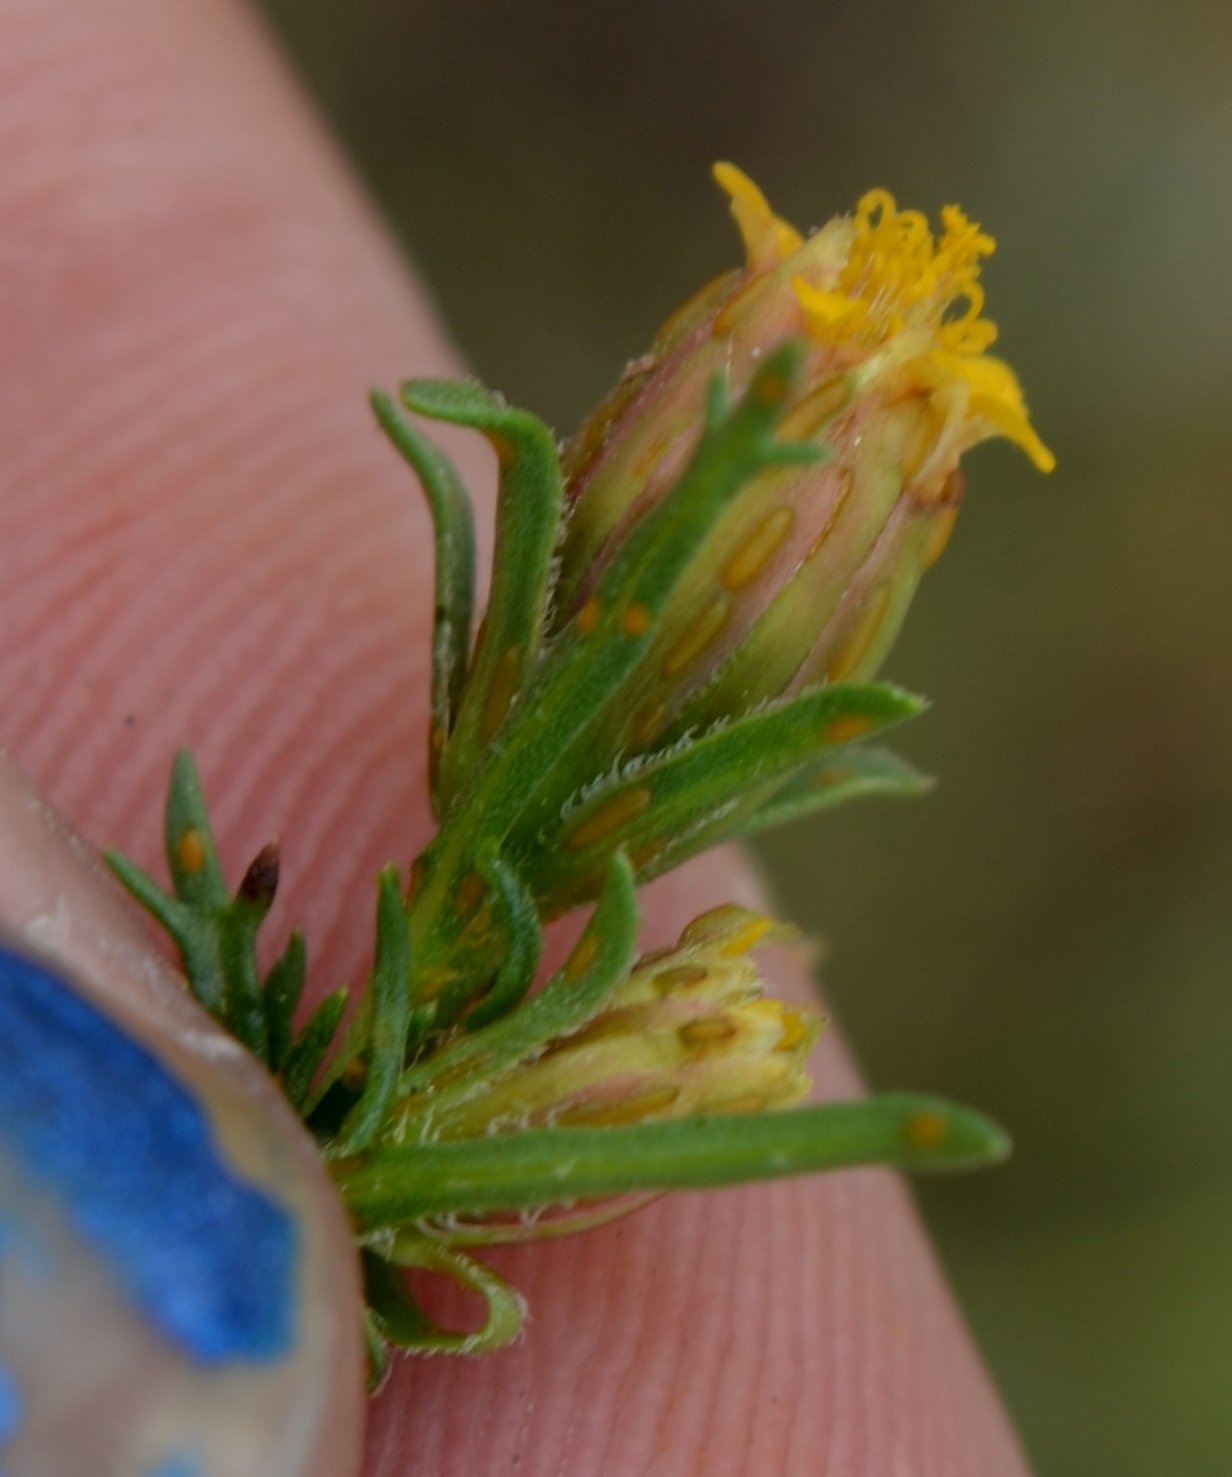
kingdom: Plantae
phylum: Tracheophyta
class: Magnoliopsida
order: Asterales
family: Asteraceae
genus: Dyssodia
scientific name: Dyssodia papposa
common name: Dogweed
